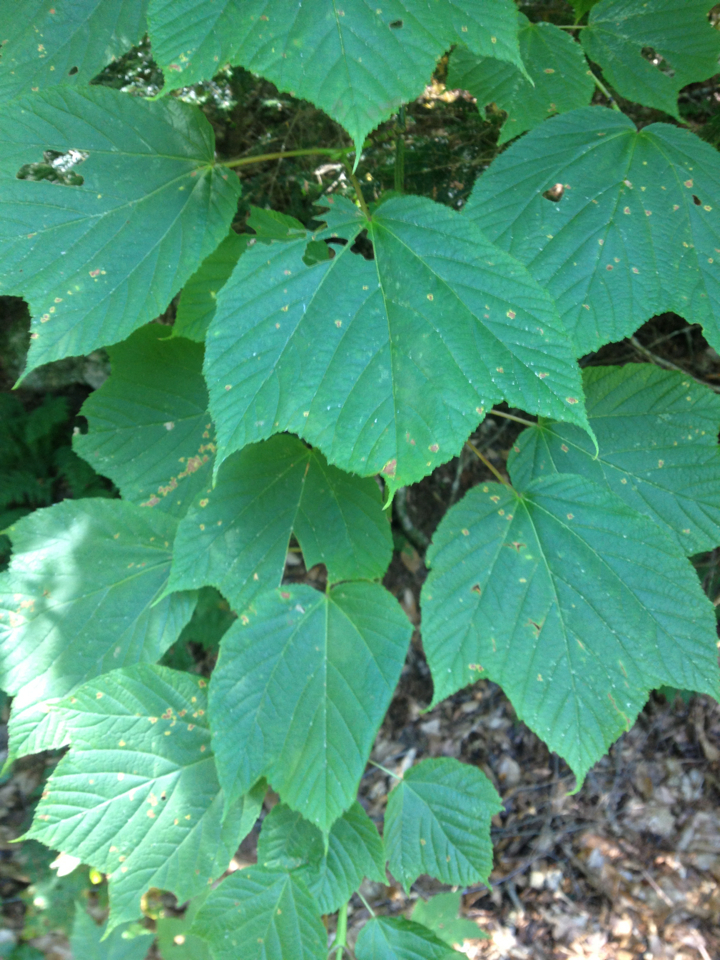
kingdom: Plantae
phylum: Tracheophyta
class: Magnoliopsida
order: Sapindales
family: Sapindaceae
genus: Acer
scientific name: Acer pensylvanicum
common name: Moosewood
